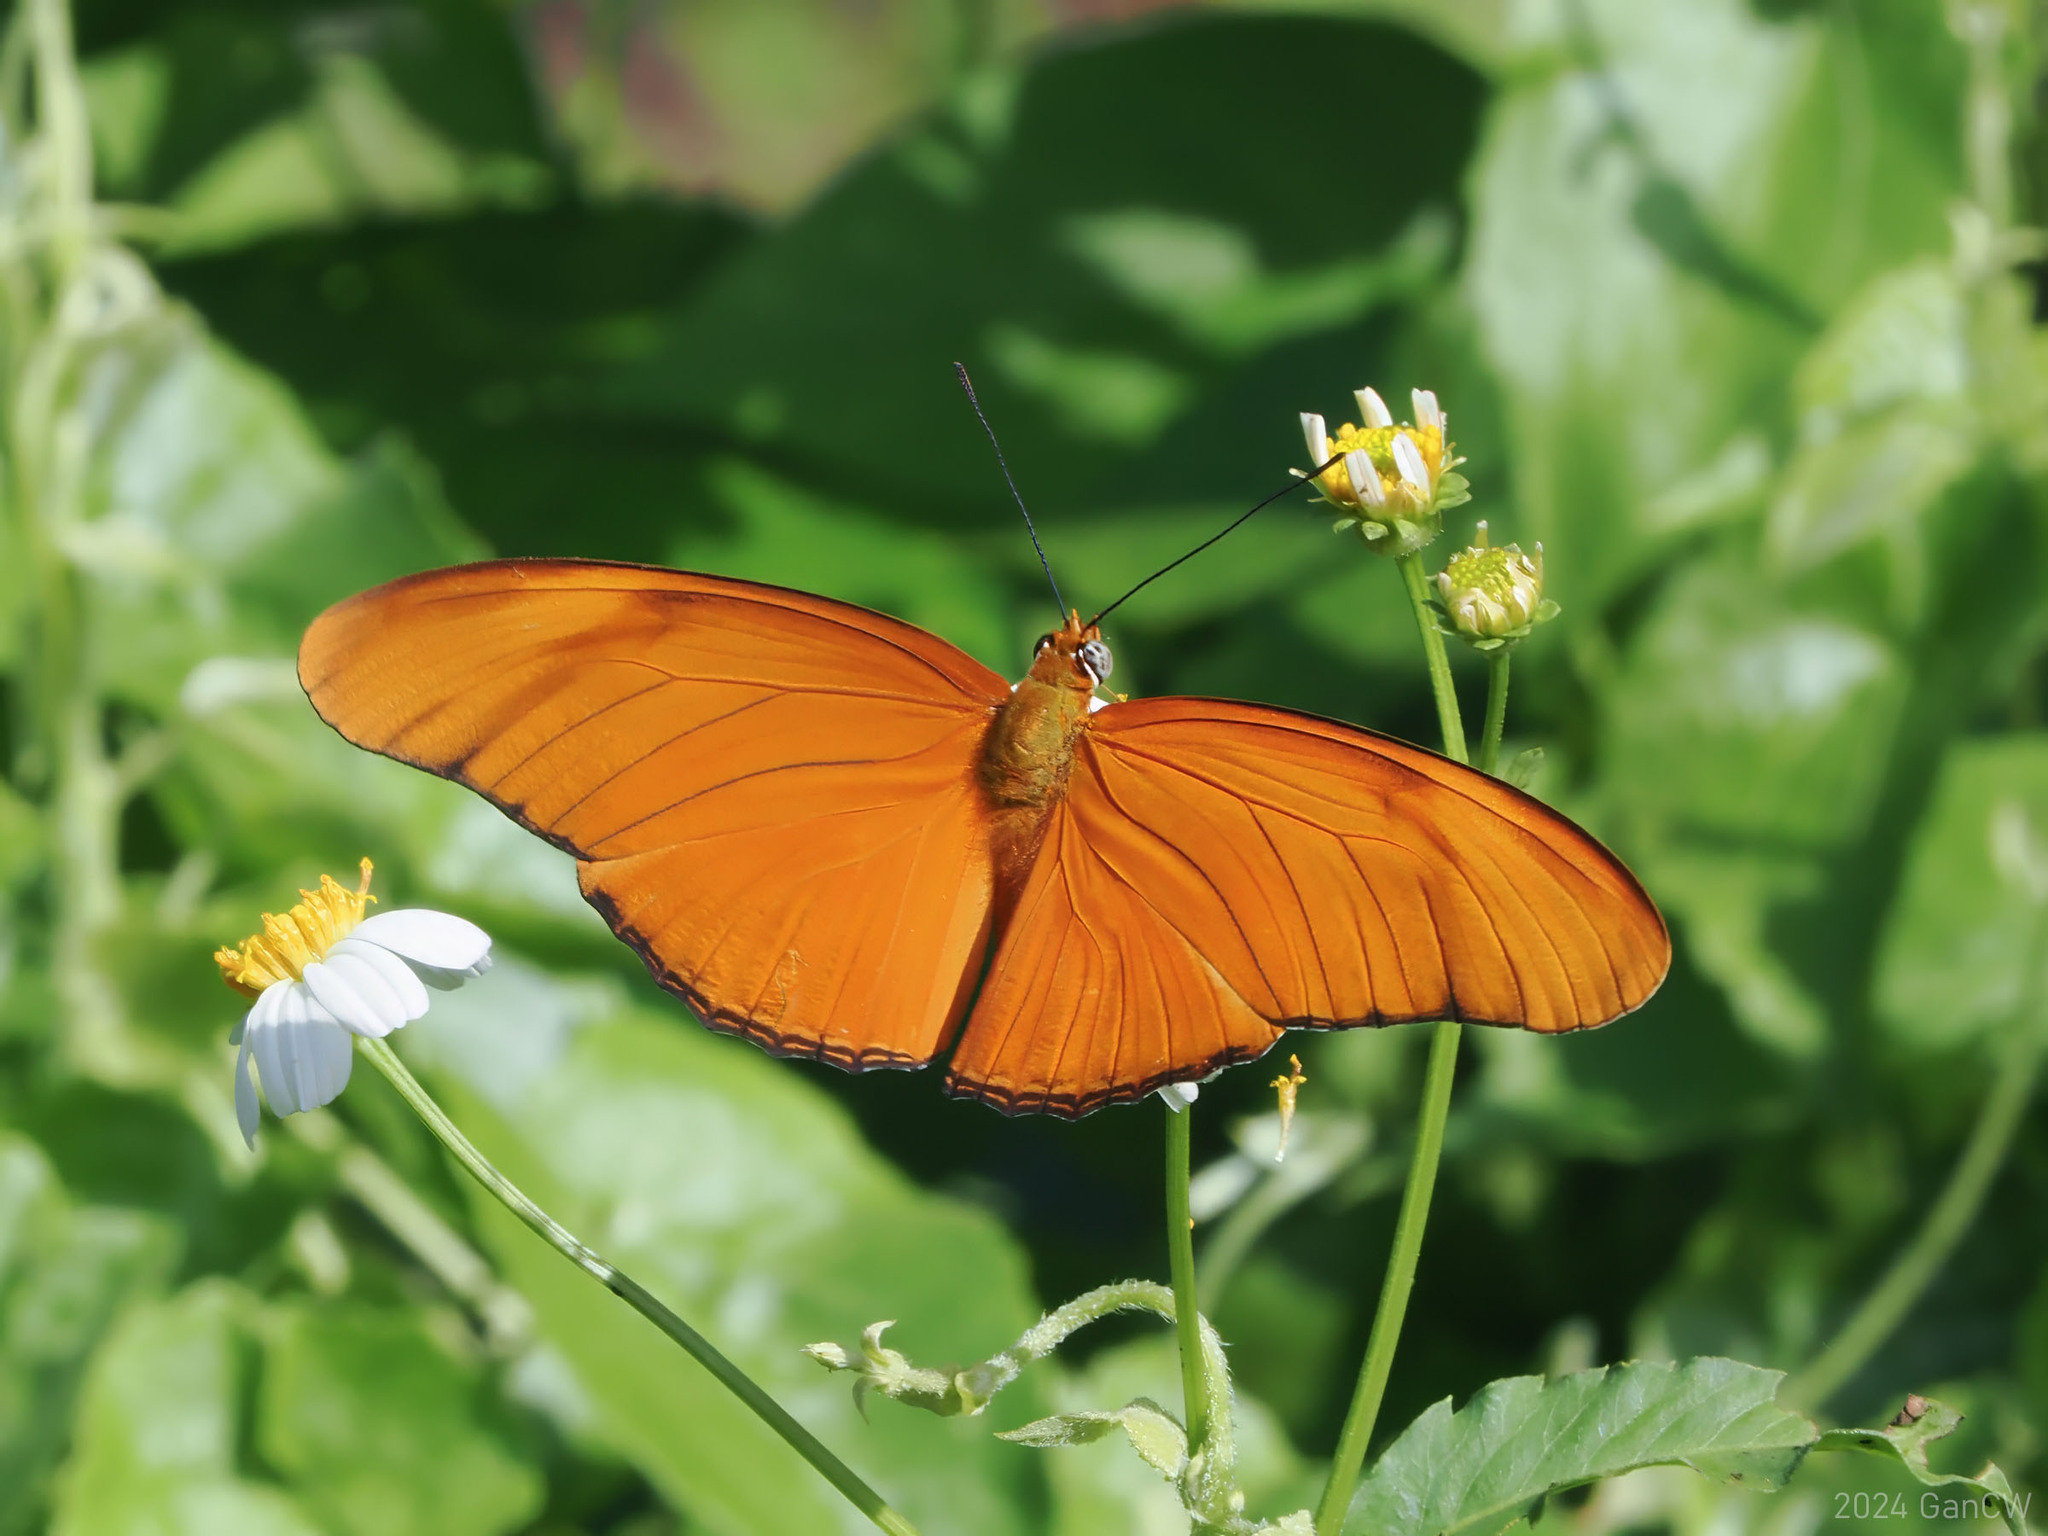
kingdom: Animalia
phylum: Arthropoda
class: Insecta
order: Lepidoptera
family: Nymphalidae
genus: Dryas
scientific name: Dryas iulia
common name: Flambeau
